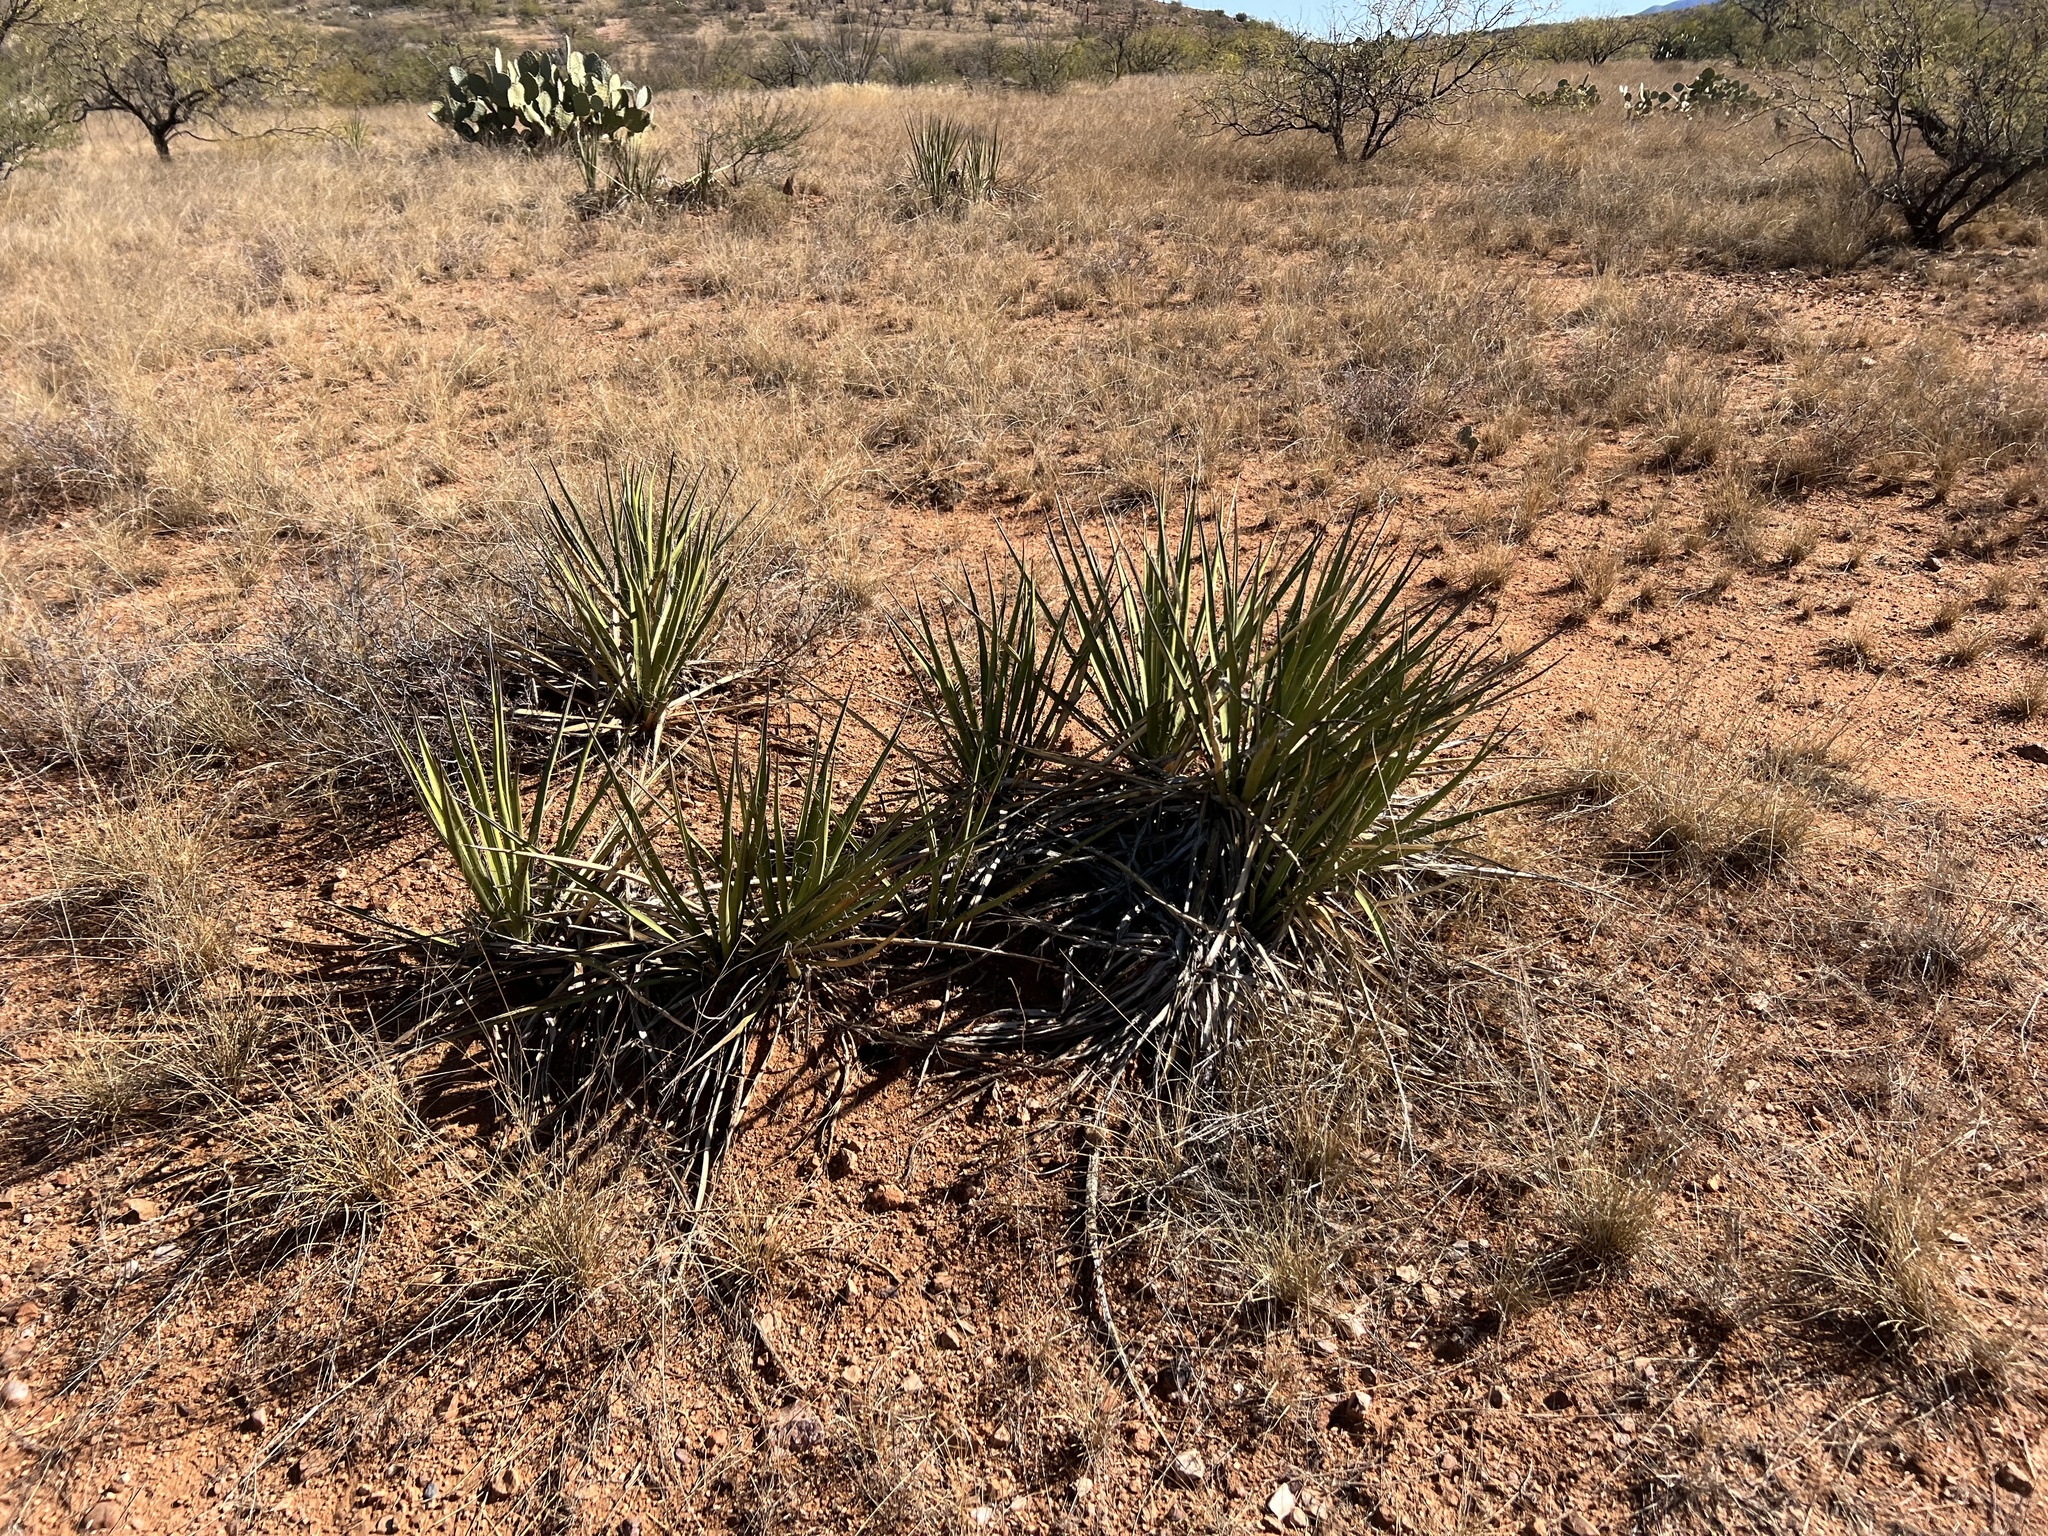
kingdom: Plantae
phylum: Tracheophyta
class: Liliopsida
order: Asparagales
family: Asparagaceae
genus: Yucca
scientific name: Yucca baccata
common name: Banana yucca
